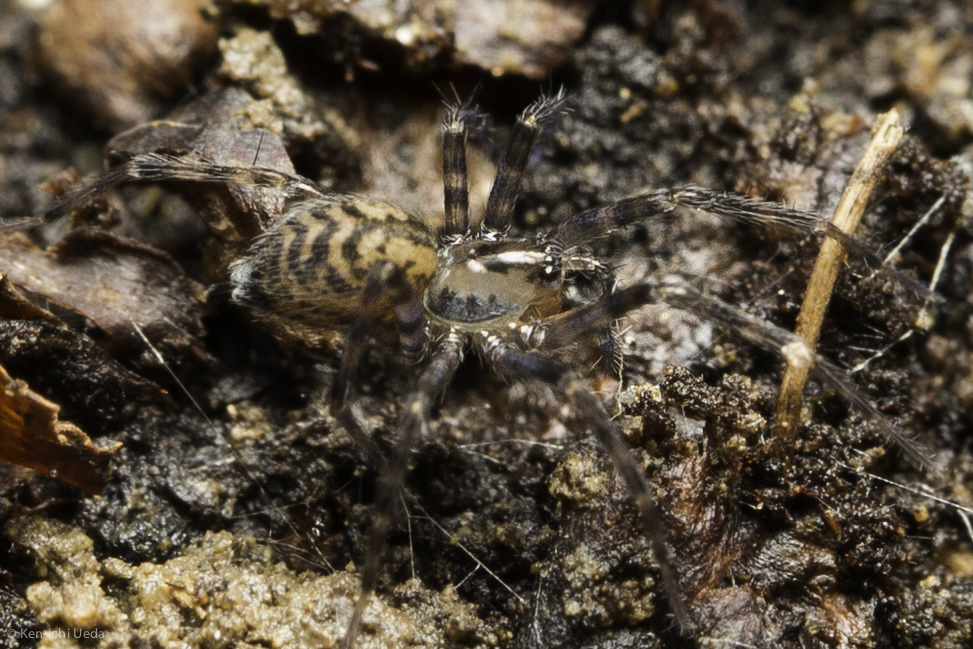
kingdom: Animalia
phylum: Arthropoda
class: Arachnida
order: Araneae
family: Cybaeidae
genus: Calymmaria
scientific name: Calymmaria
